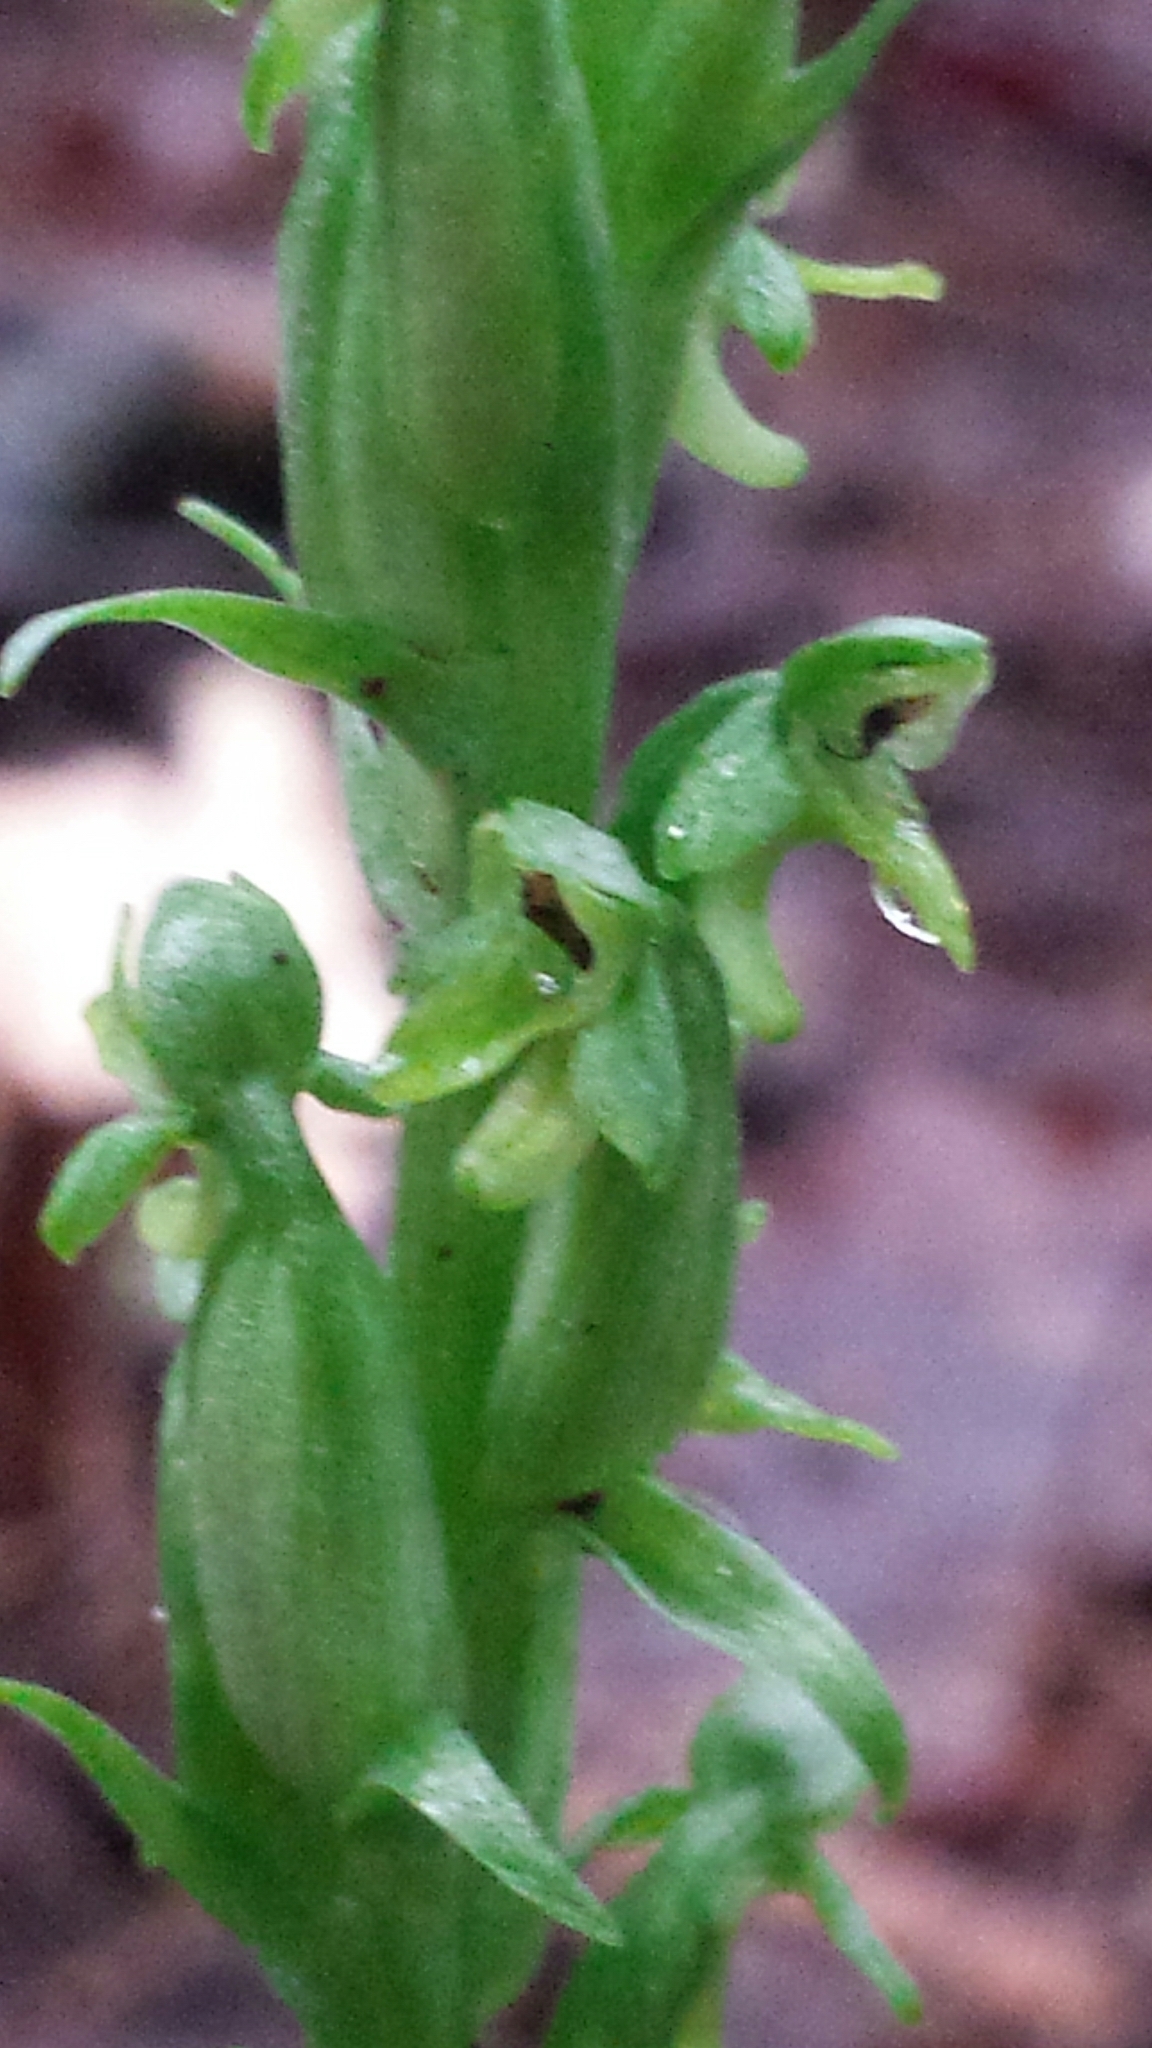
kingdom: Plantae
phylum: Tracheophyta
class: Liliopsida
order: Asparagales
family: Orchidaceae
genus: Platanthera
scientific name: Platanthera aquilonis
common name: Northern green orchid
